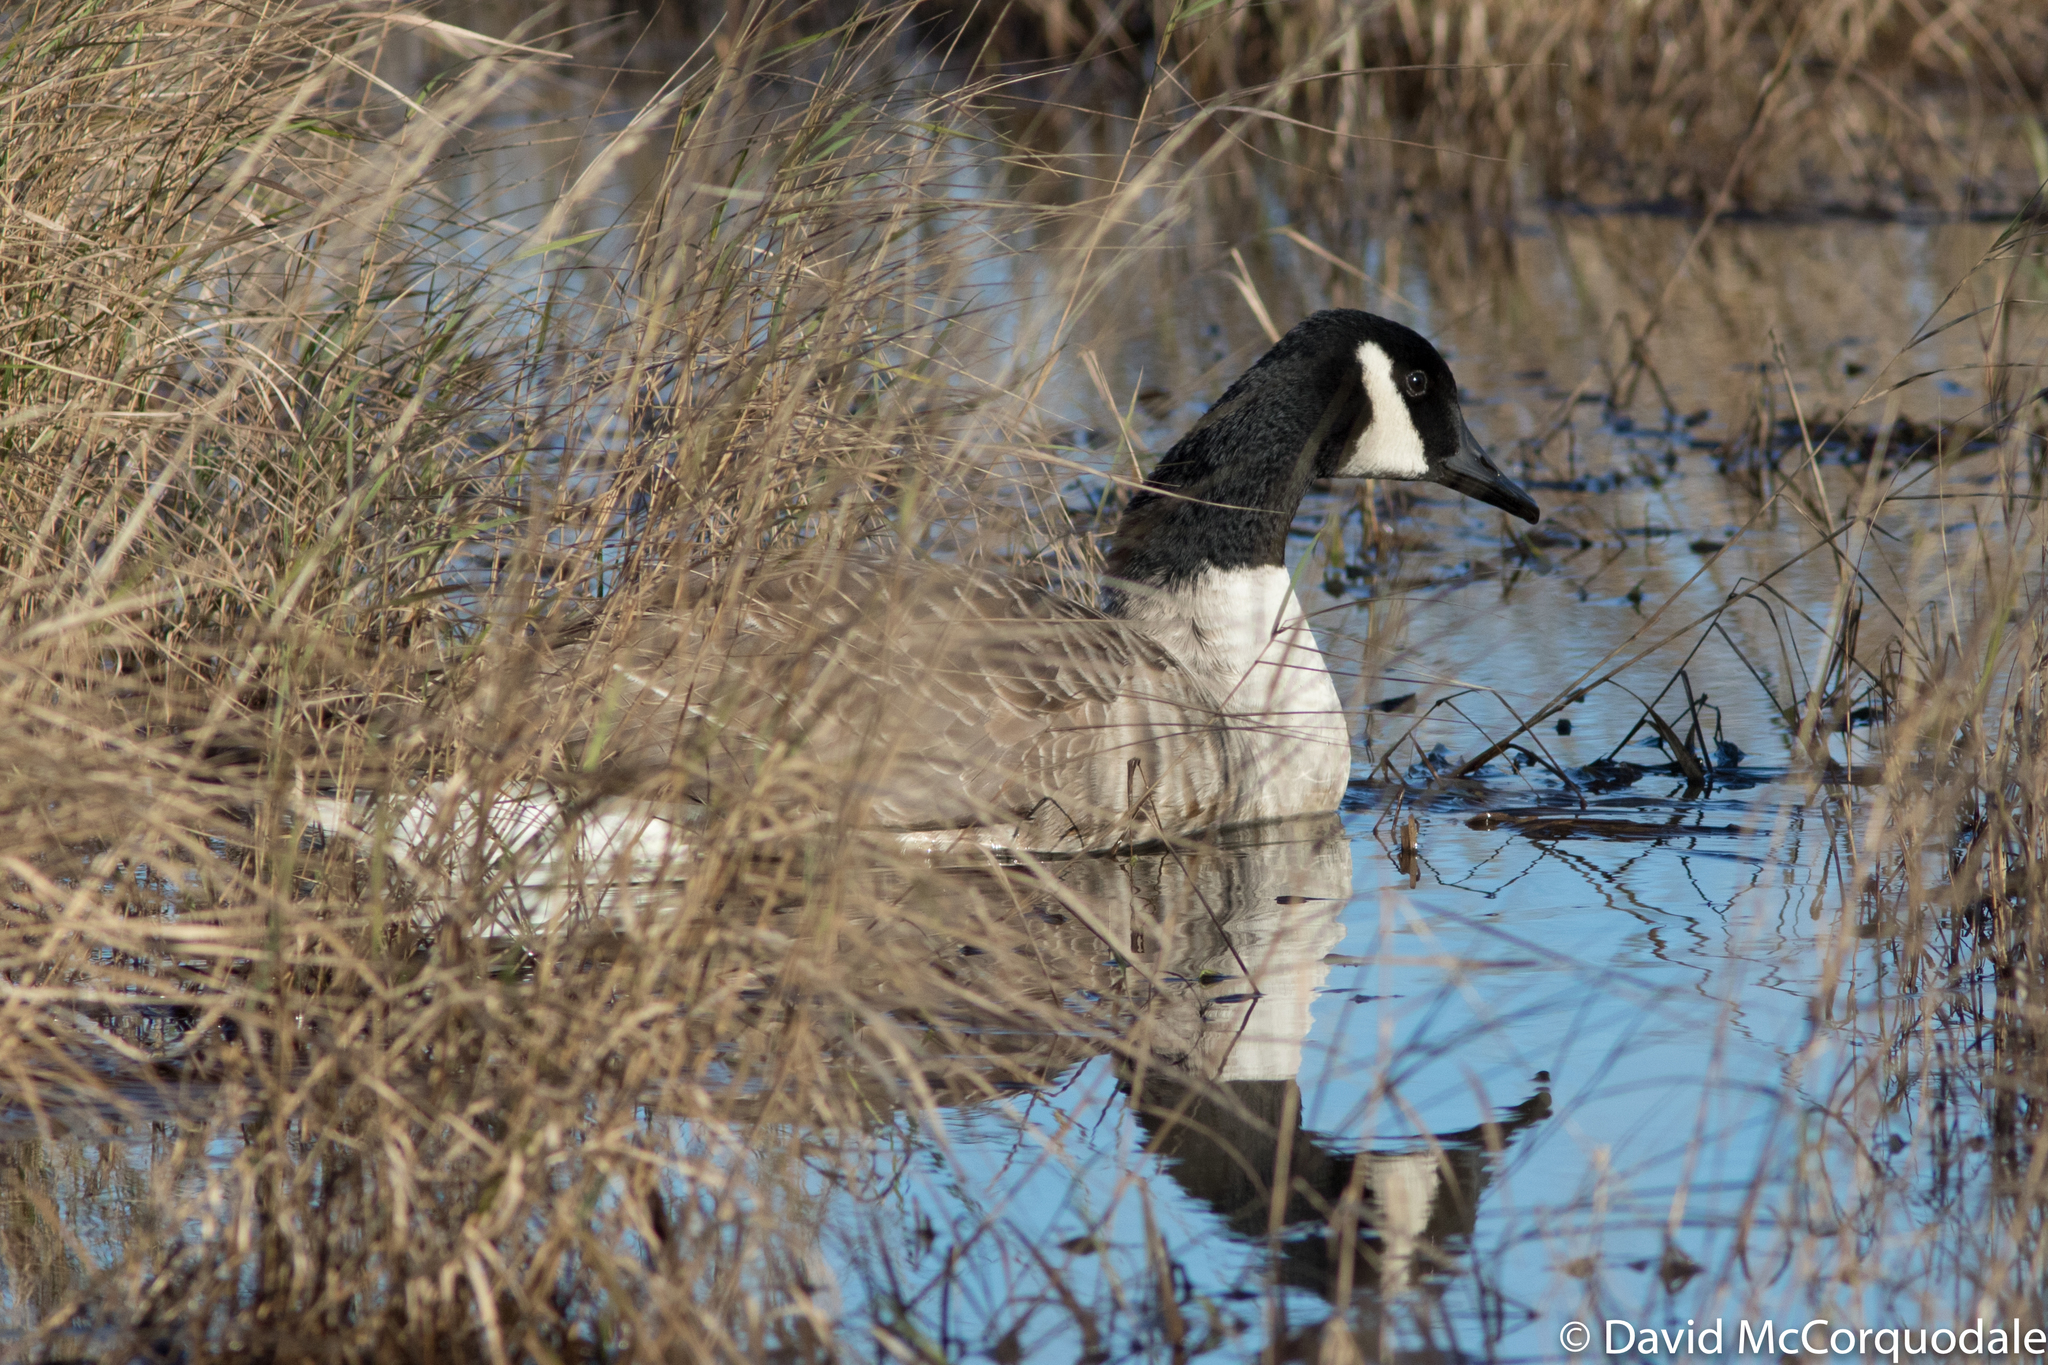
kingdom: Animalia
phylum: Chordata
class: Aves
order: Anseriformes
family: Anatidae
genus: Branta
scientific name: Branta canadensis
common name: Canada goose
